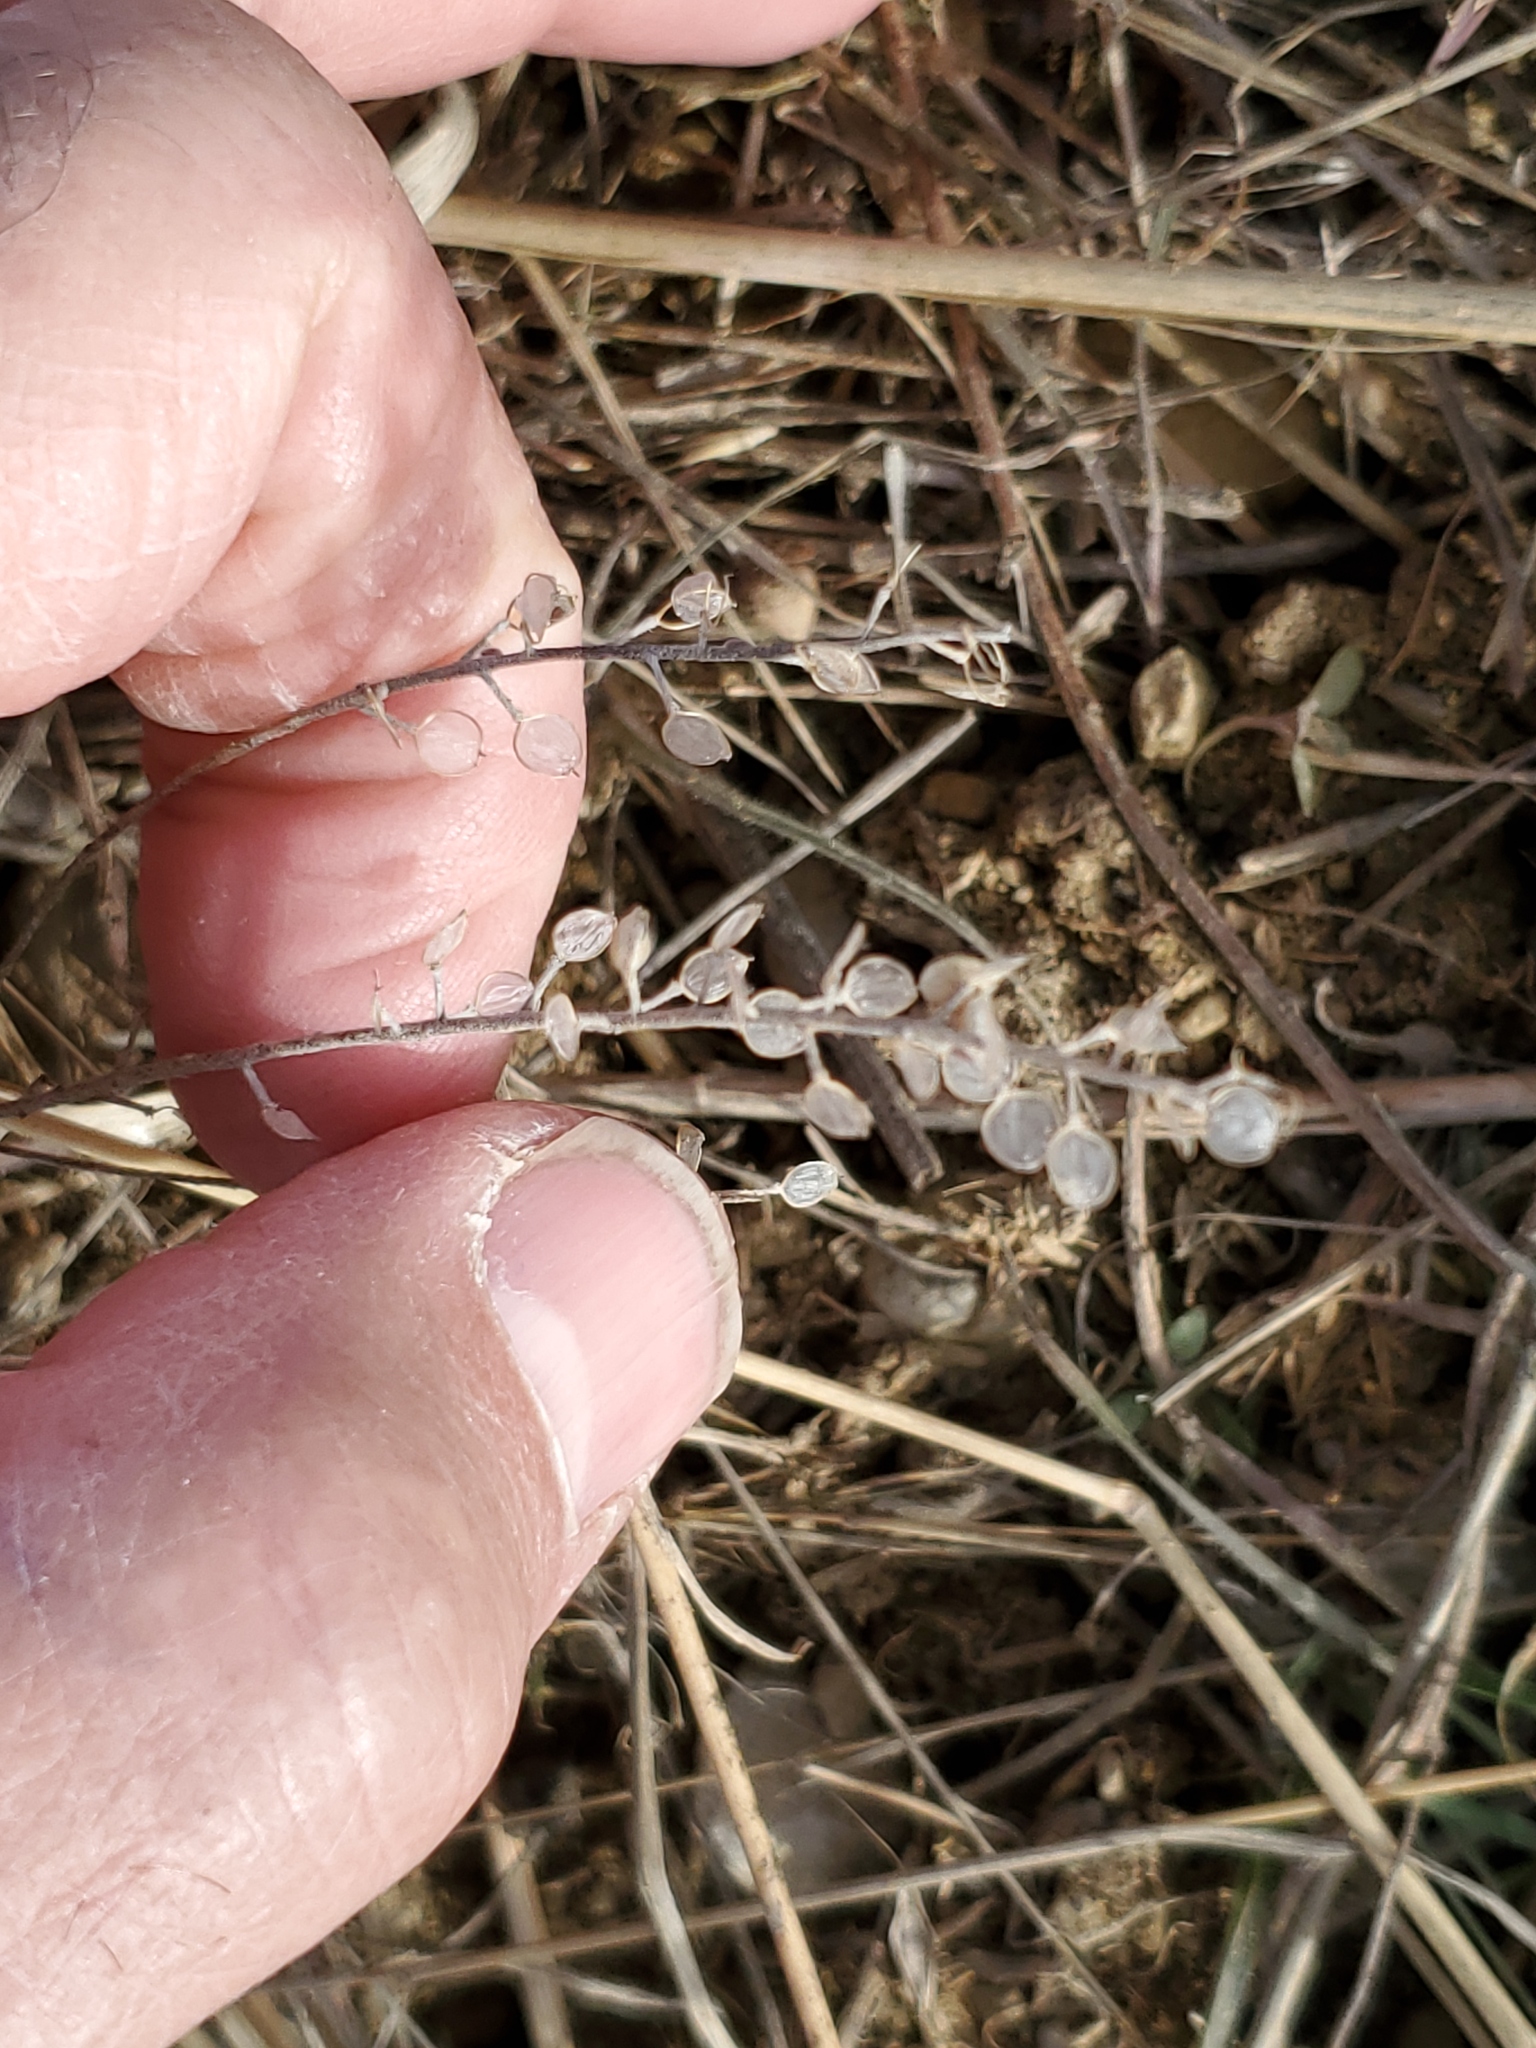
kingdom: Plantae
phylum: Tracheophyta
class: Magnoliopsida
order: Brassicales
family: Brassicaceae
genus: Alyssum
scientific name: Alyssum turkestanicum
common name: Desert alyssum
